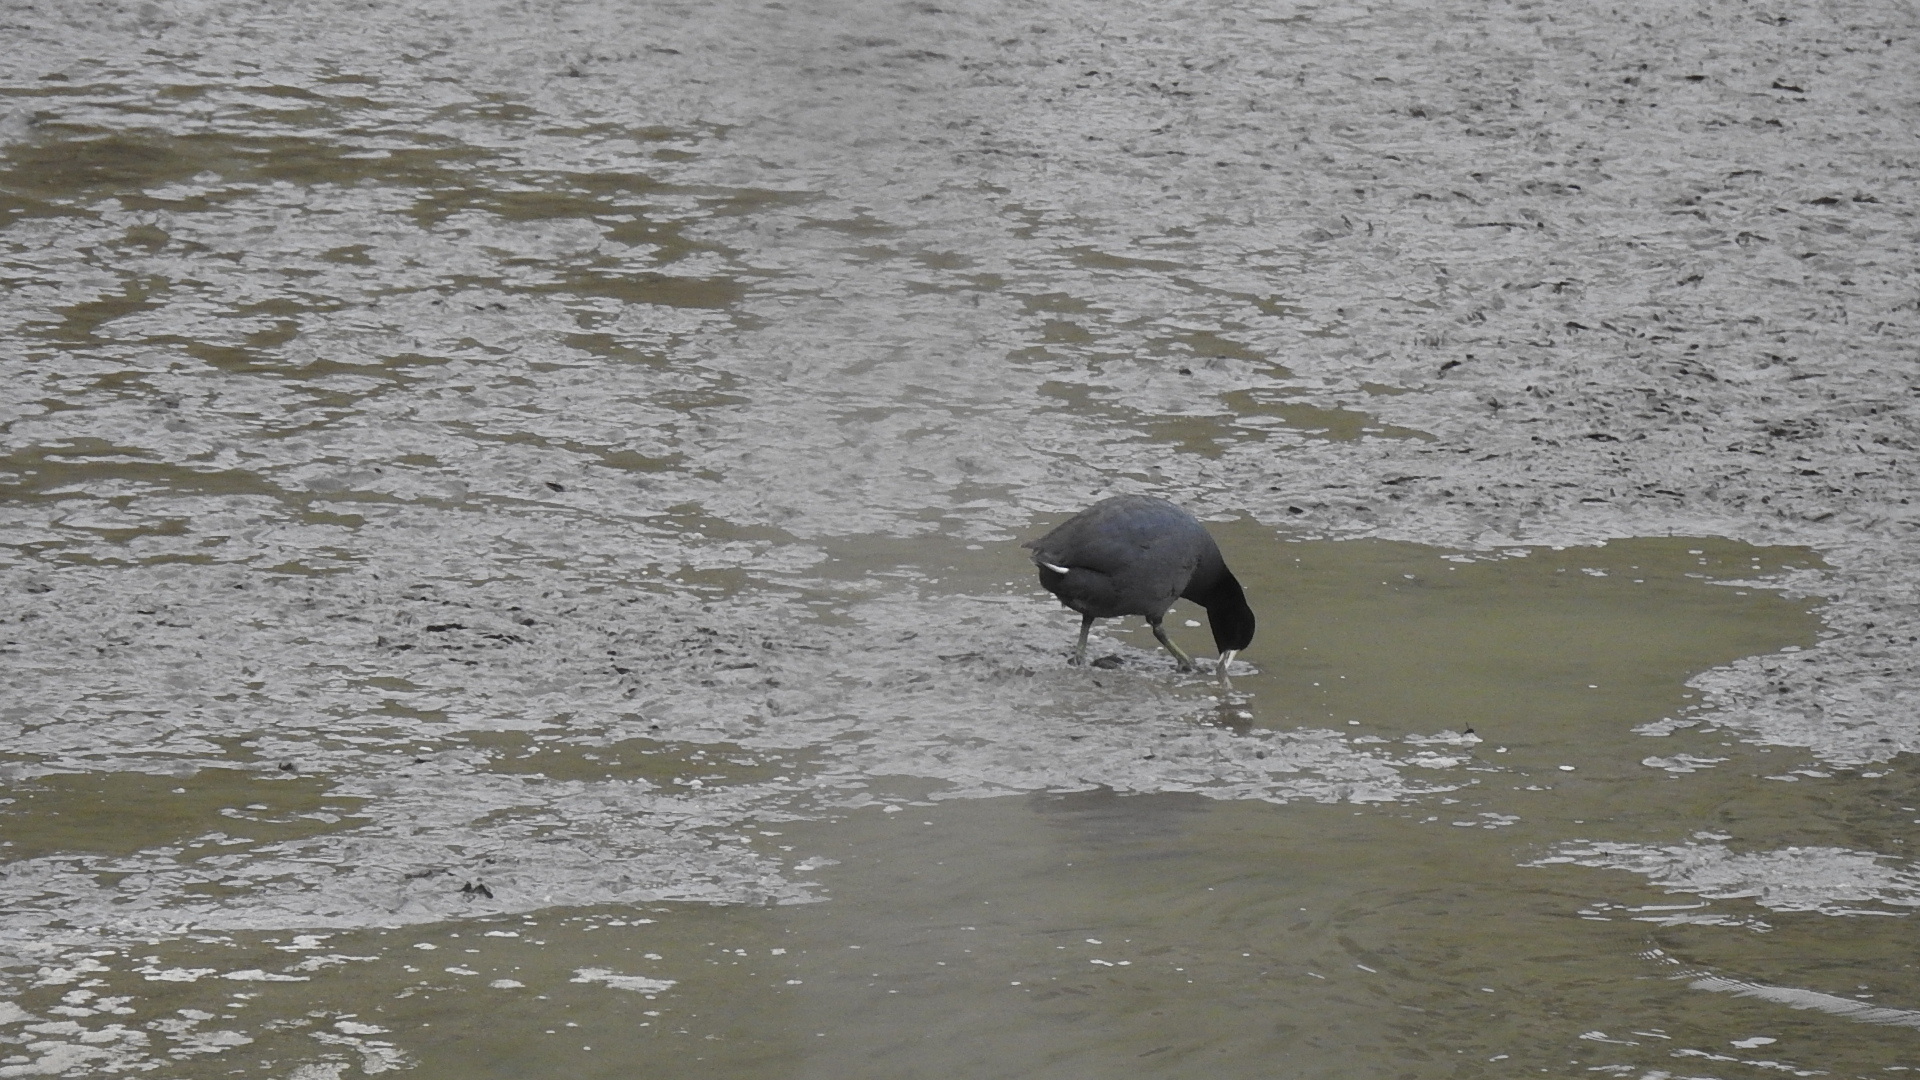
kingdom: Animalia
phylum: Chordata
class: Aves
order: Gruiformes
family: Rallidae
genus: Fulica
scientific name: Fulica americana
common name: American coot
